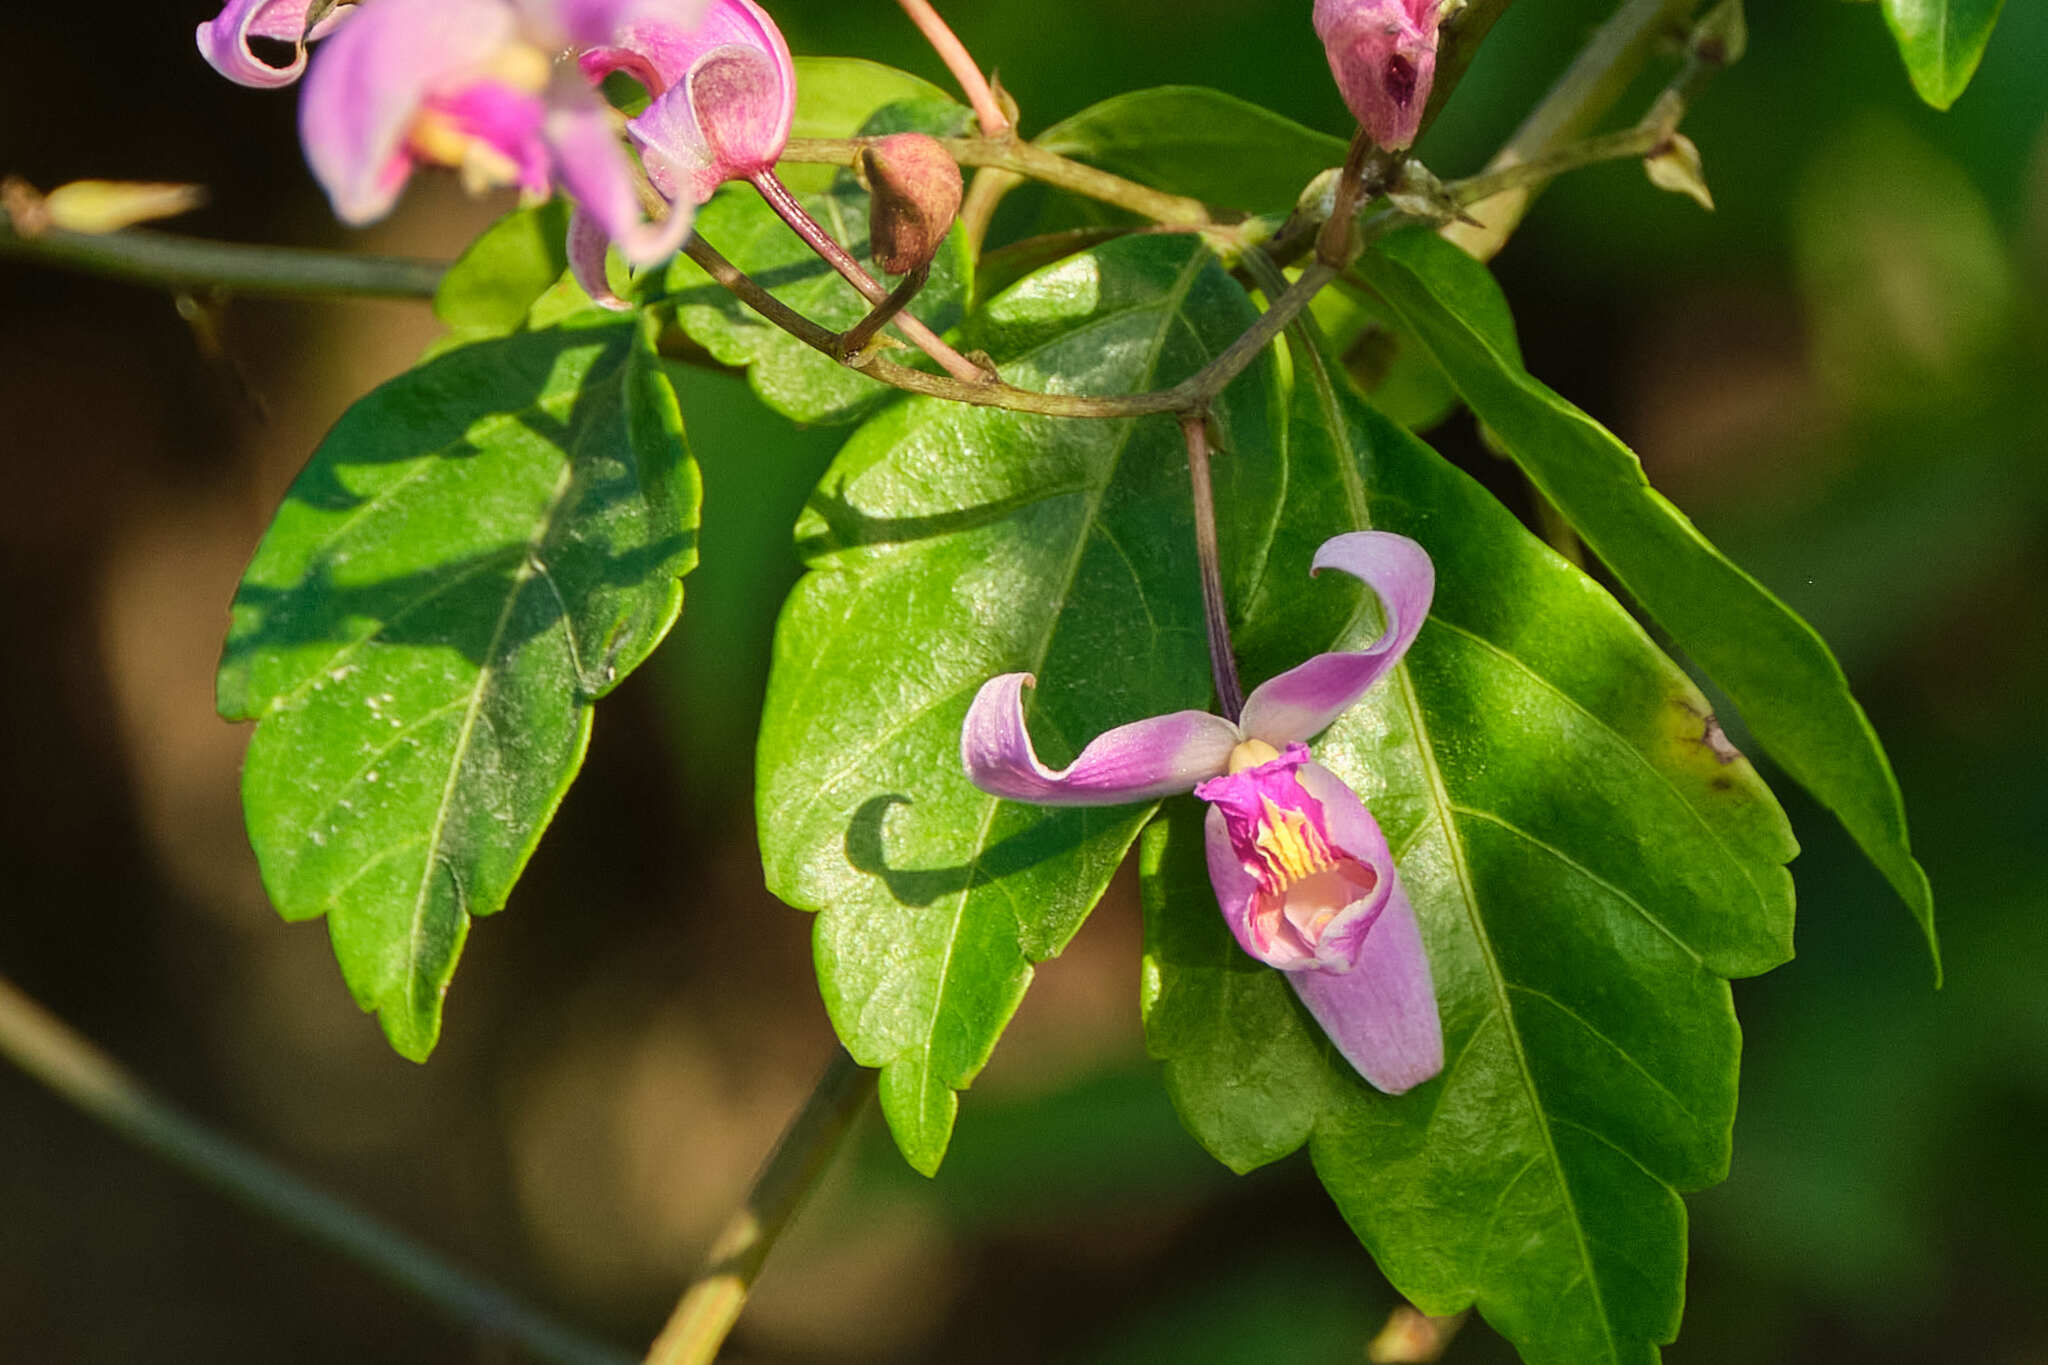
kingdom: Plantae
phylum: Tracheophyta
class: Liliopsida
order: Asparagales
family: Orchidaceae
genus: Bletia
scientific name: Bletia purpurea
